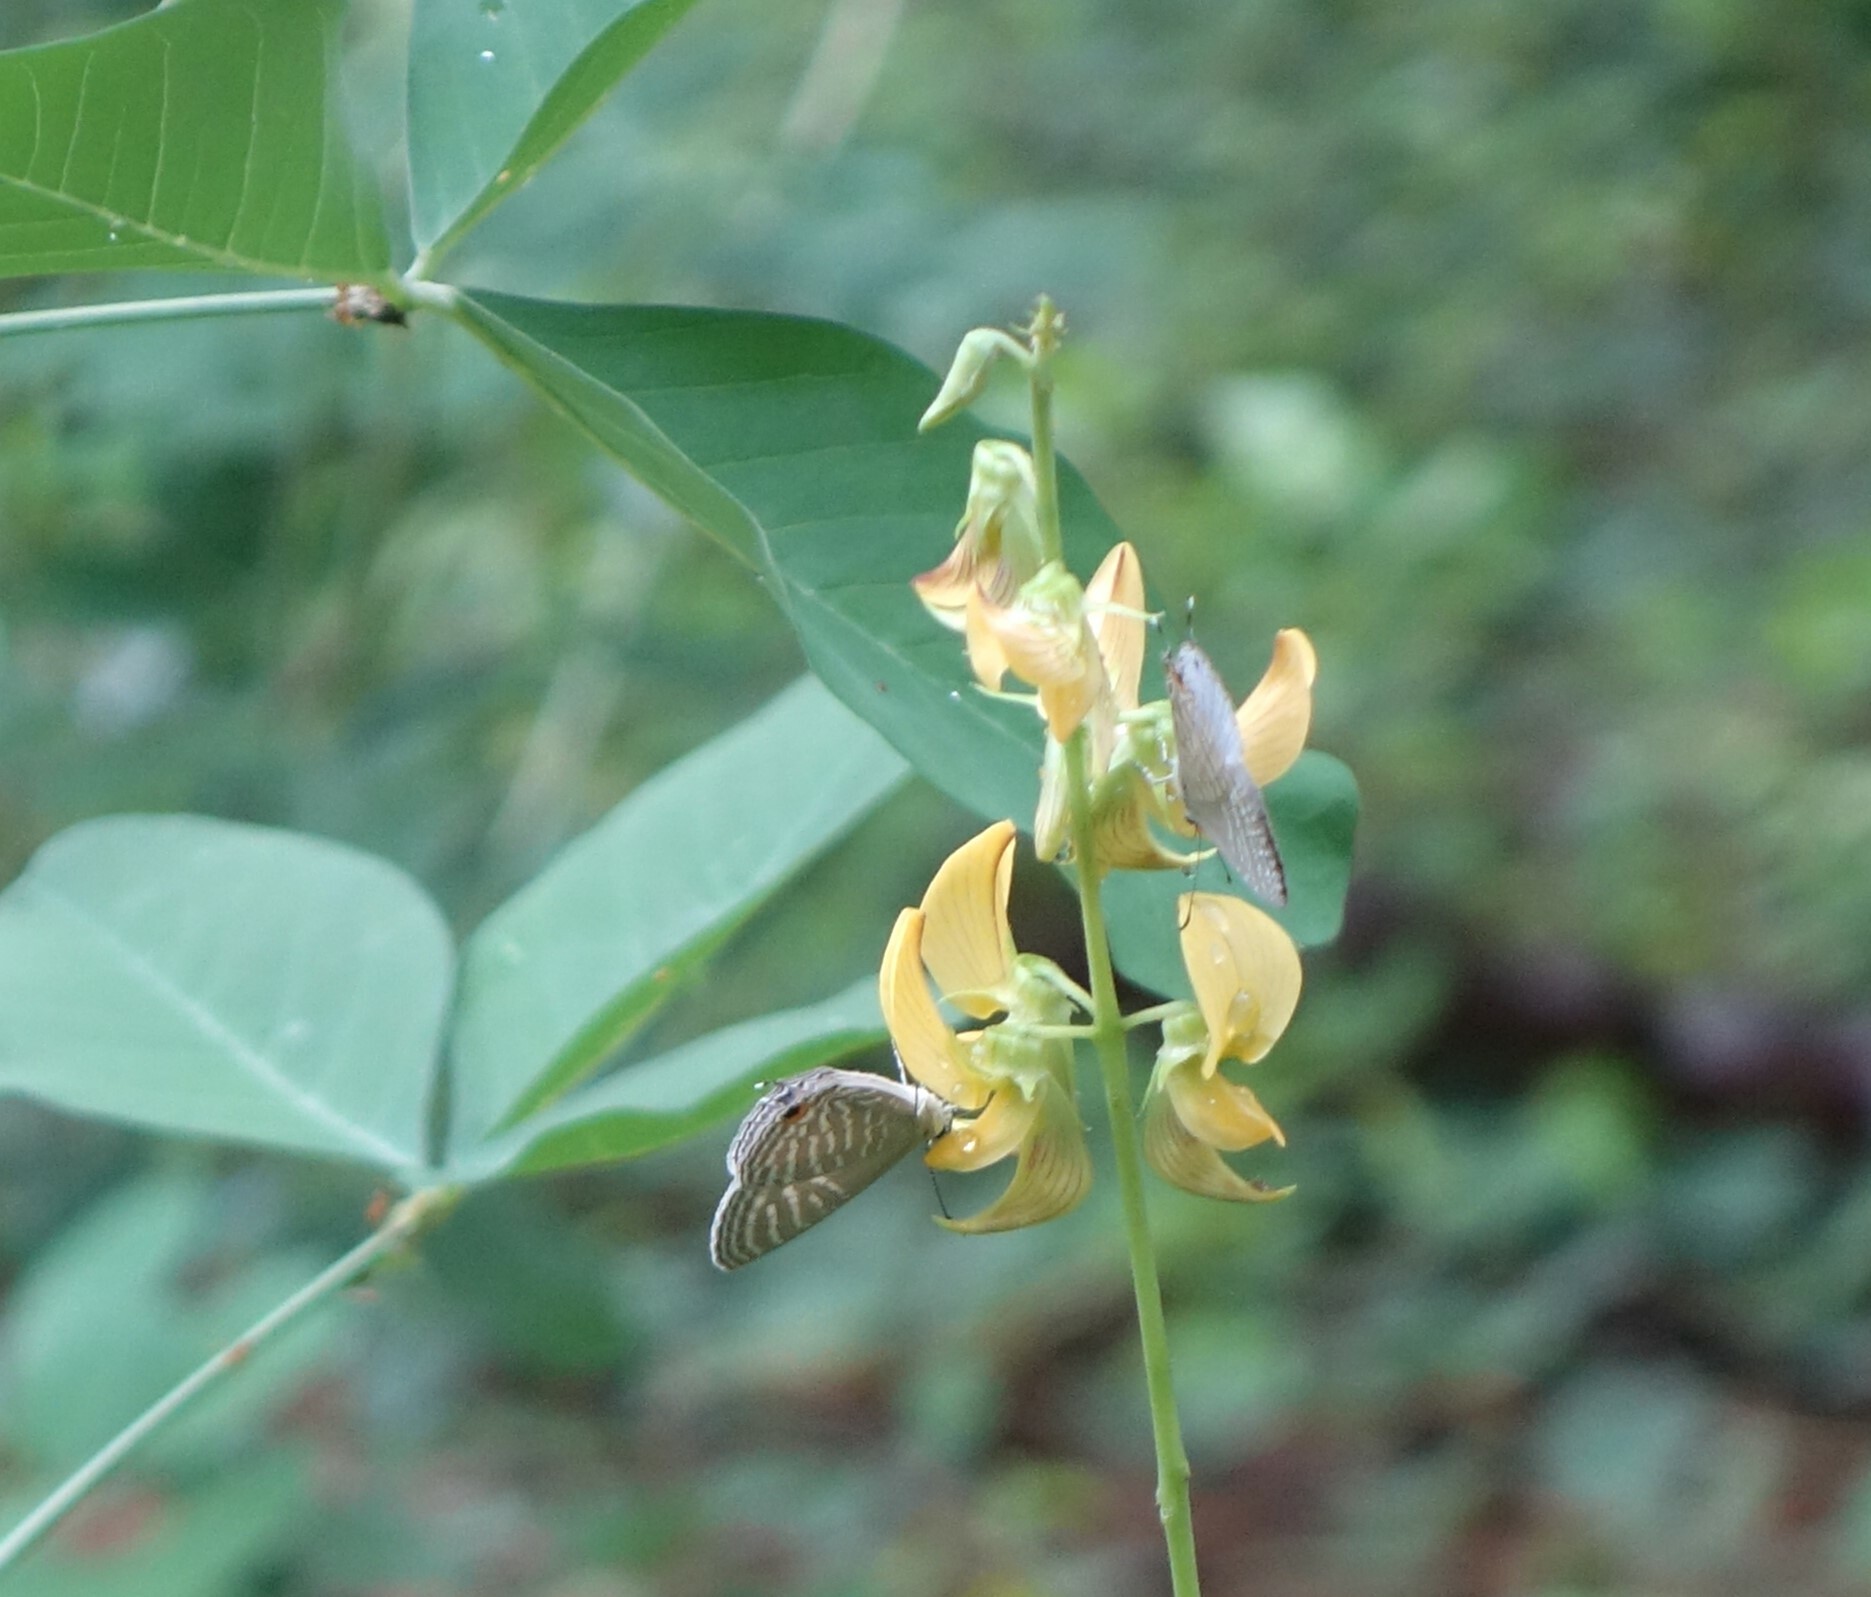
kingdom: Animalia
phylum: Arthropoda
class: Insecta
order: Lepidoptera
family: Lycaenidae
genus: Jamides
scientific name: Jamides celeno
